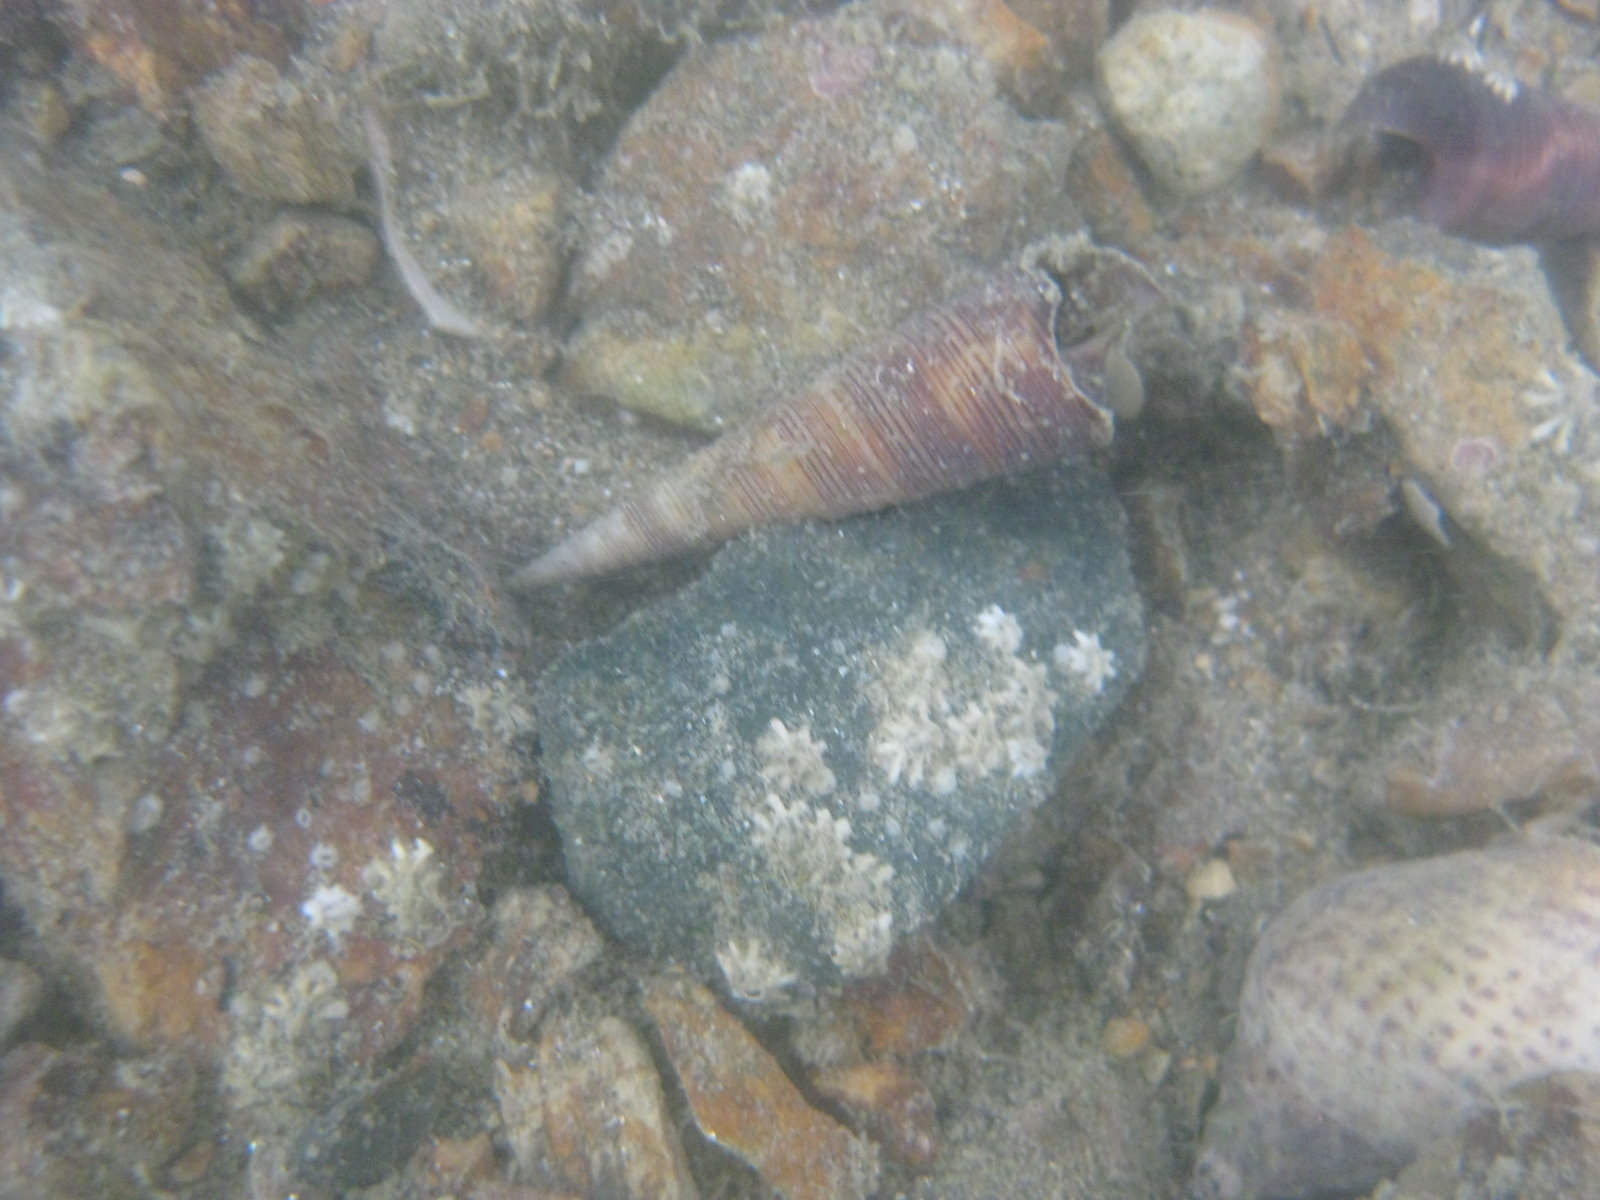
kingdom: Animalia
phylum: Arthropoda
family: Elminiidae
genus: Austrominius
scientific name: Austrominius modestus
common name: Australasian barnacle
